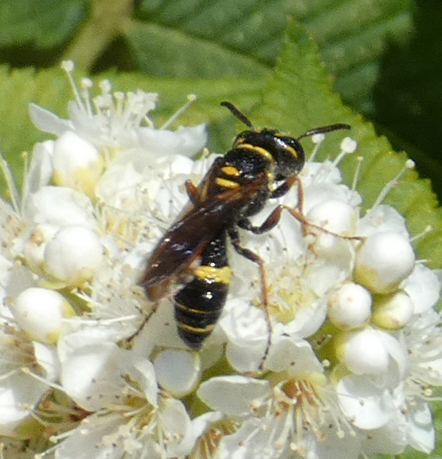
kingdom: Animalia
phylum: Arthropoda
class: Insecta
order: Hymenoptera
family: Crabronidae
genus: Philanthus
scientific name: Philanthus gibbosus
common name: Humped beewolf
